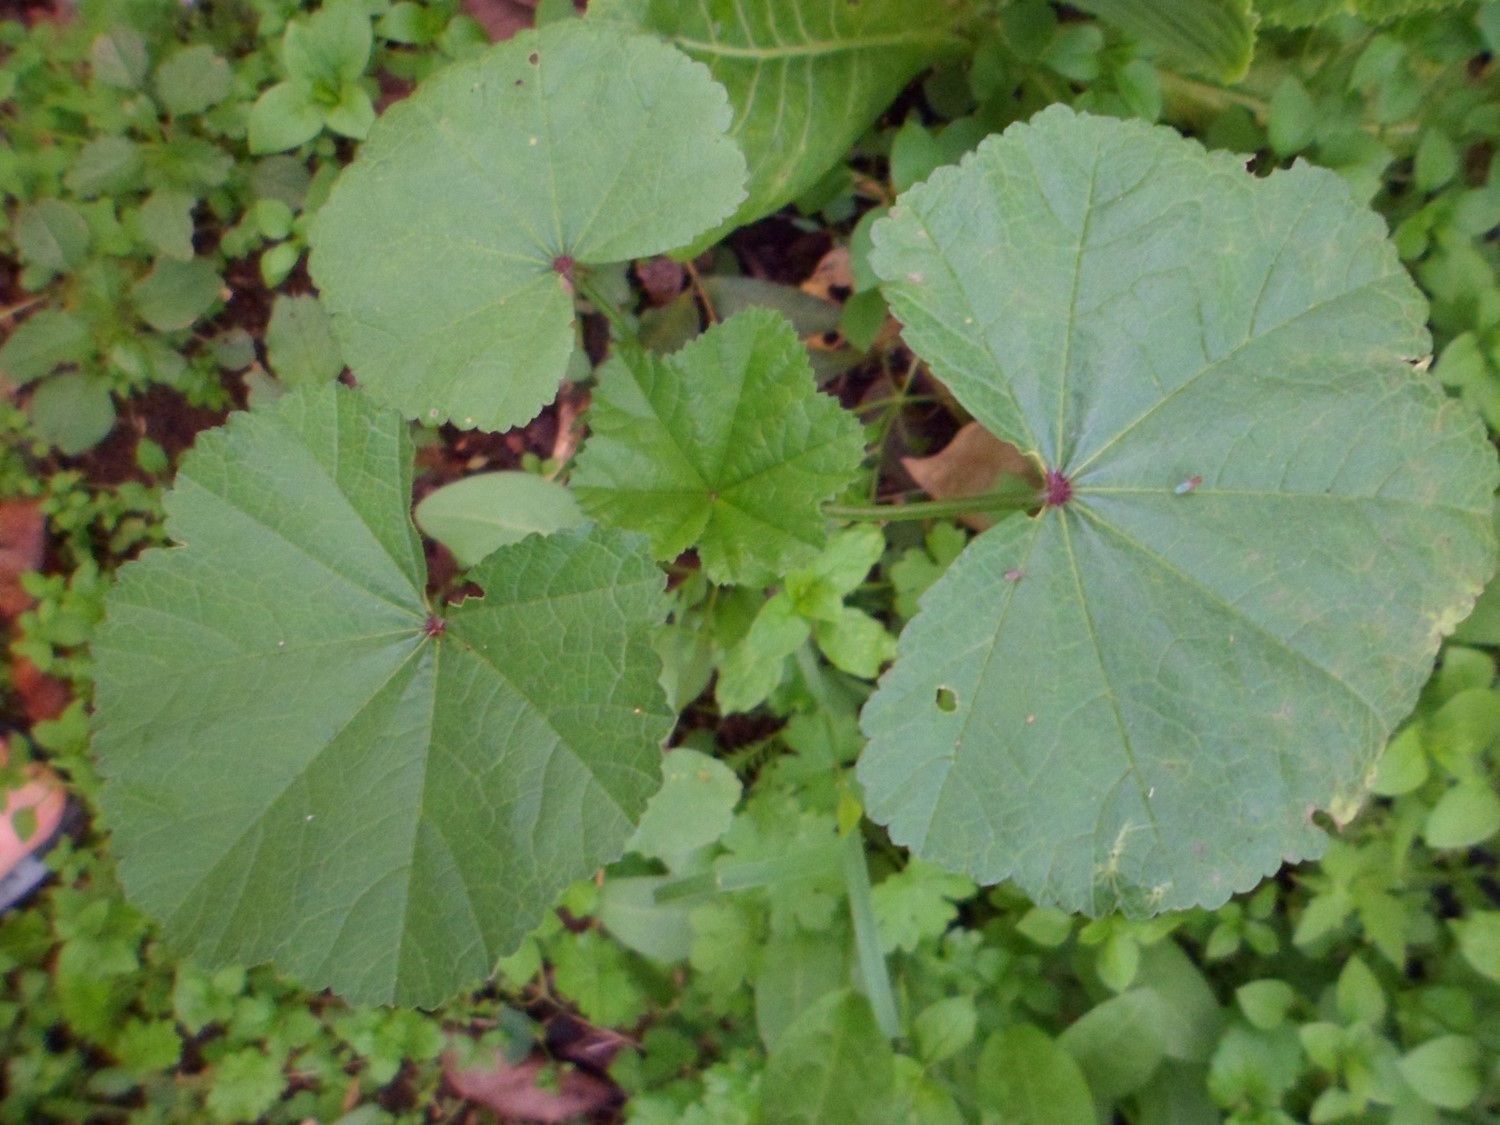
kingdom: Plantae
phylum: Tracheophyta
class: Magnoliopsida
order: Malvales
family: Malvaceae
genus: Malva
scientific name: Malva parviflora
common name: Least mallow
